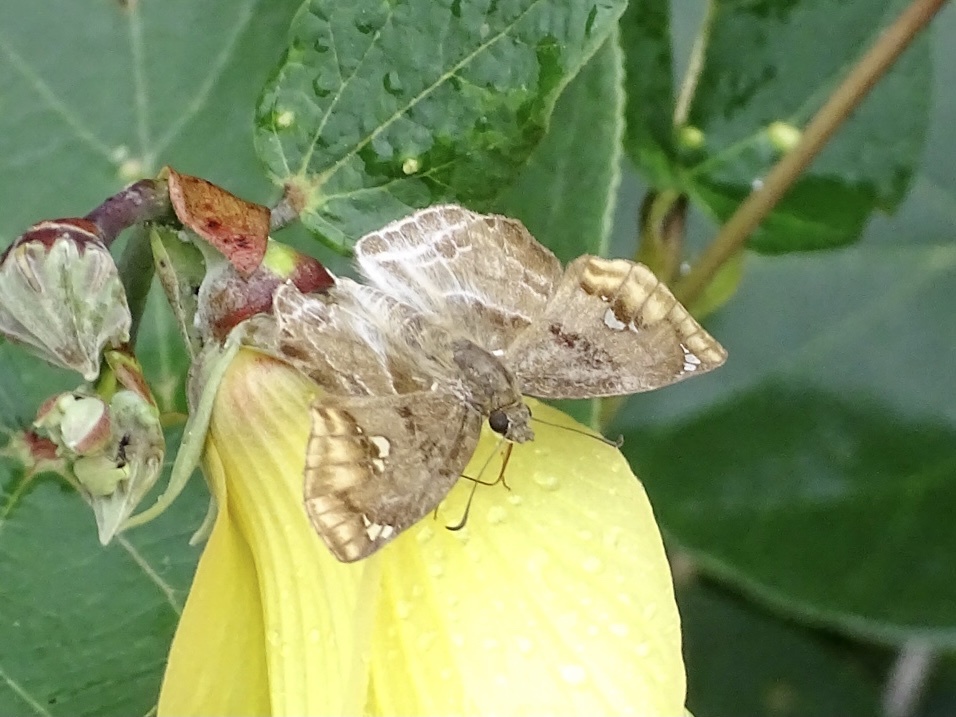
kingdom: Animalia
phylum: Arthropoda
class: Insecta
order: Lepidoptera
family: Hesperiidae
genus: Odontoptilum
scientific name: Odontoptilum angulata
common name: Chestnut banded angle
